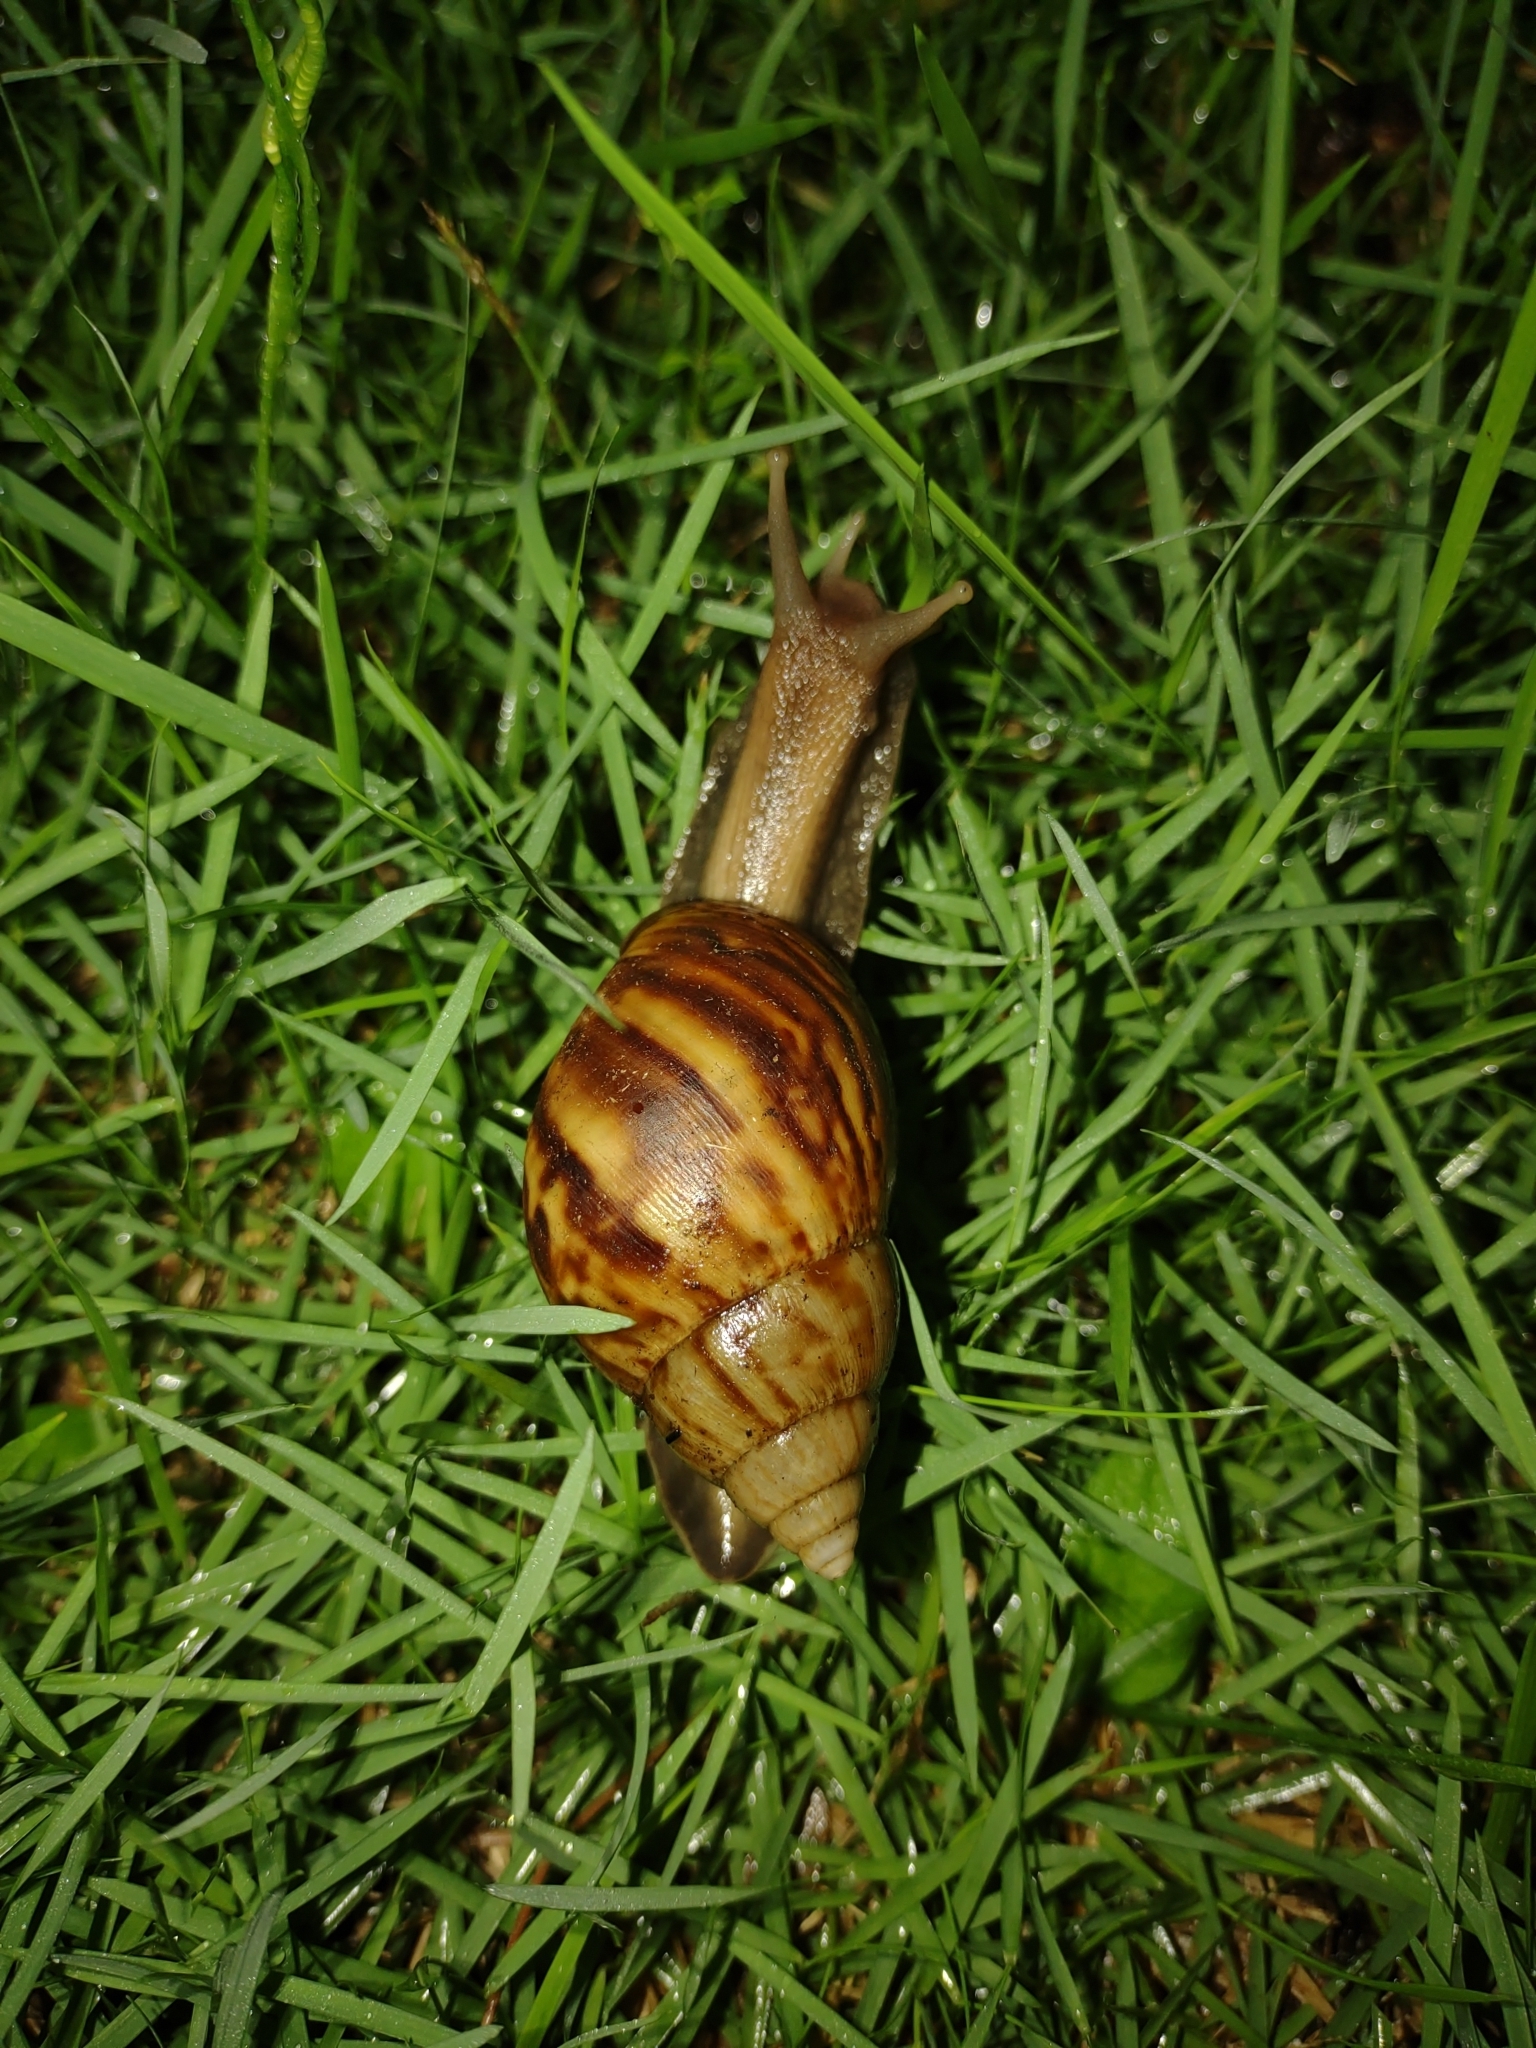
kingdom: Animalia
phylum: Mollusca
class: Gastropoda
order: Stylommatophora
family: Achatinidae
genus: Lissachatina
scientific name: Lissachatina fulica
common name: Giant african snail
